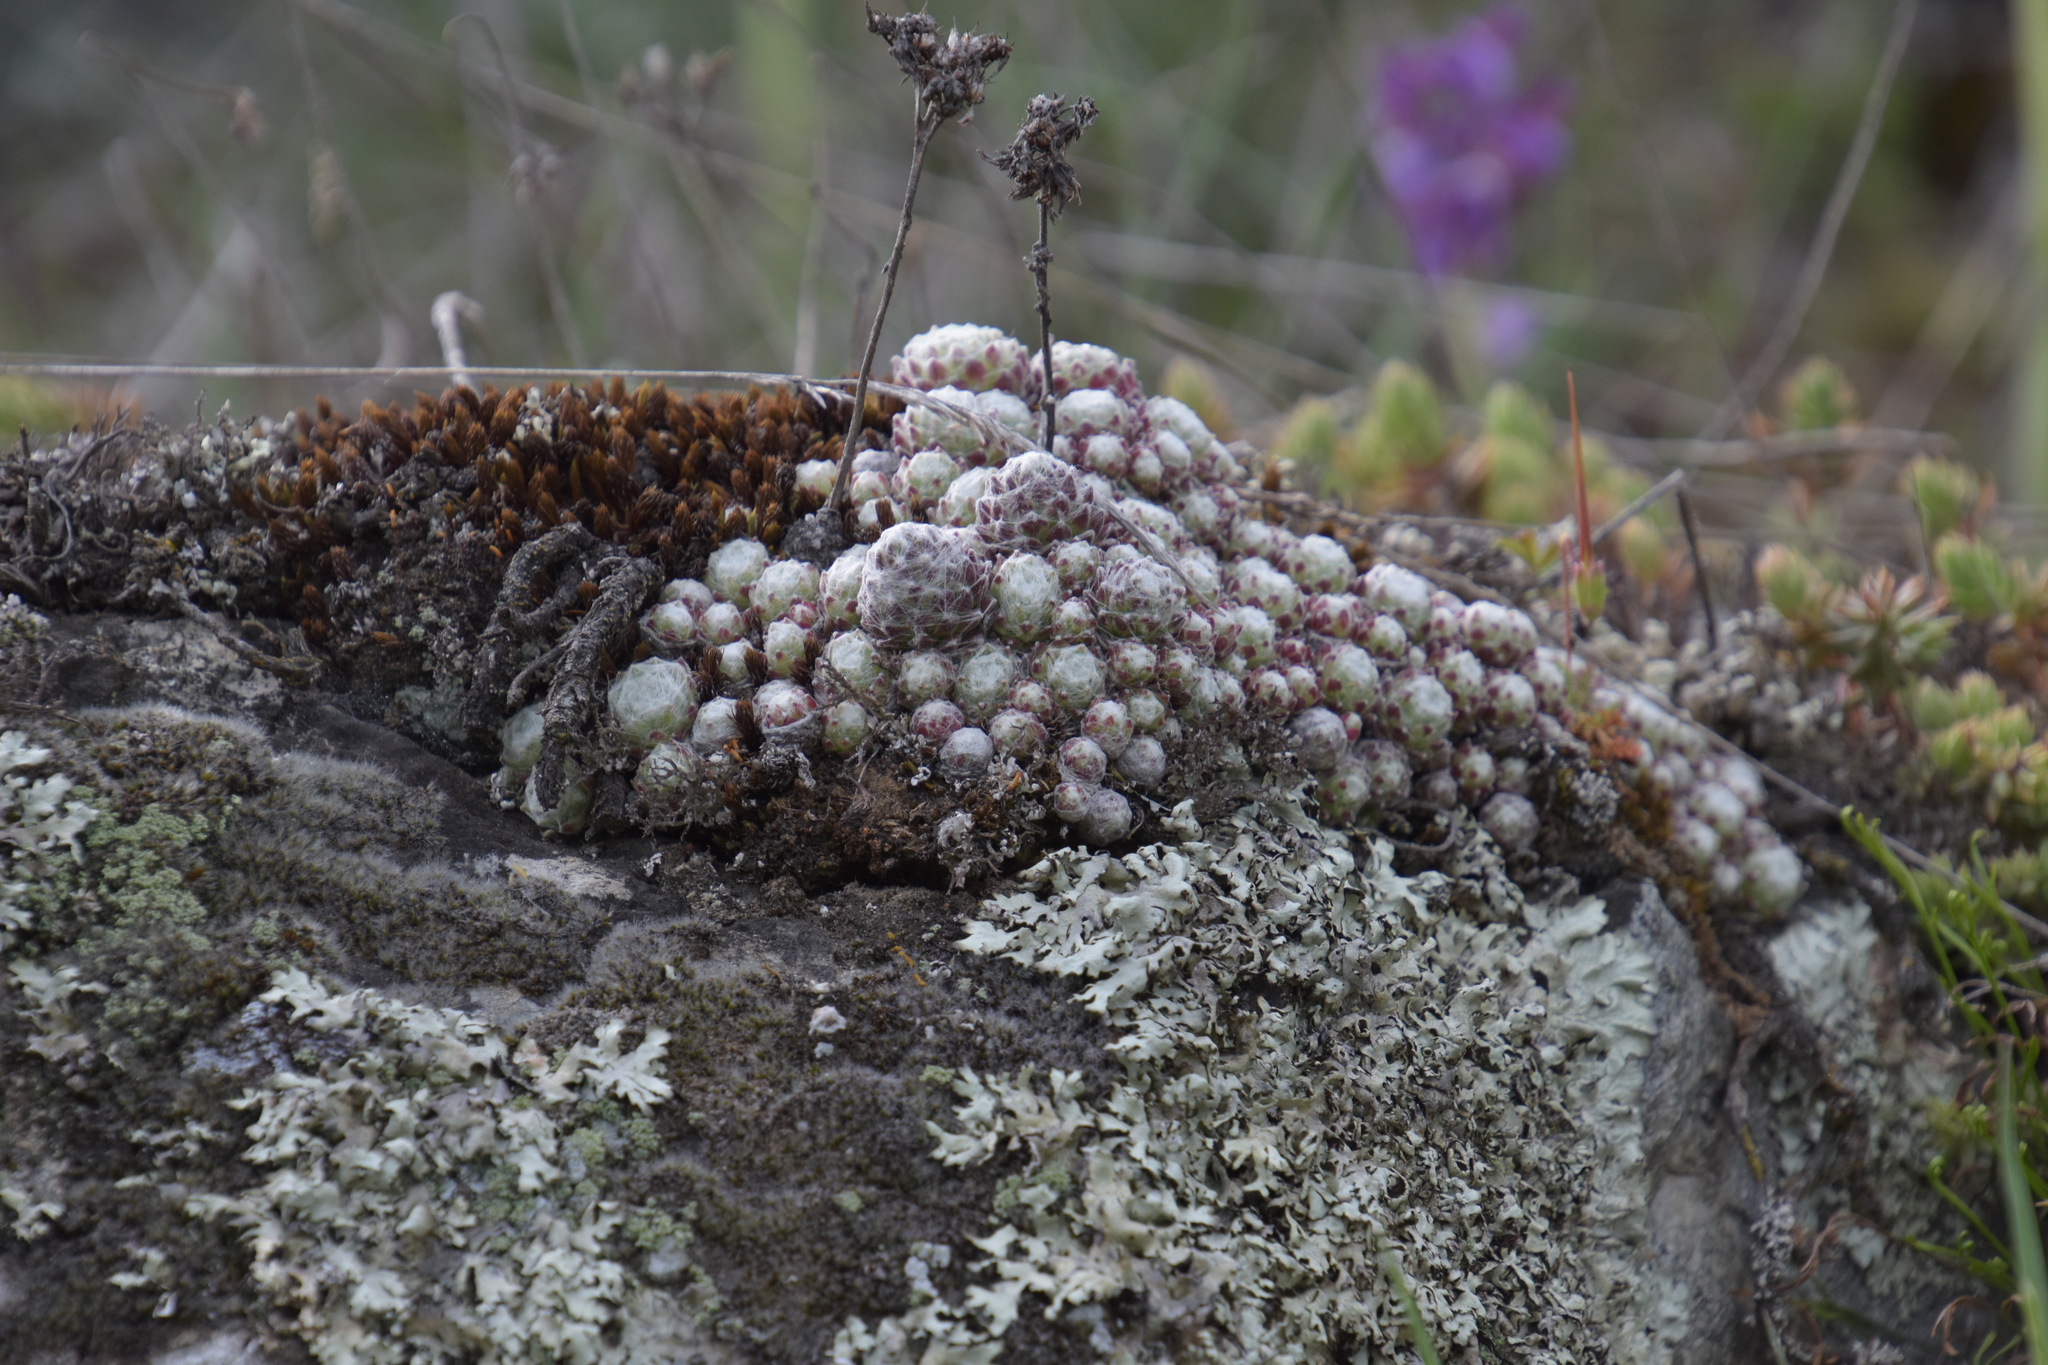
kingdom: Plantae
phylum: Tracheophyta
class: Magnoliopsida
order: Saxifragales
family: Crassulaceae
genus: Sempervivum
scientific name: Sempervivum arachnoideum
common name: Cobweb house-leek
